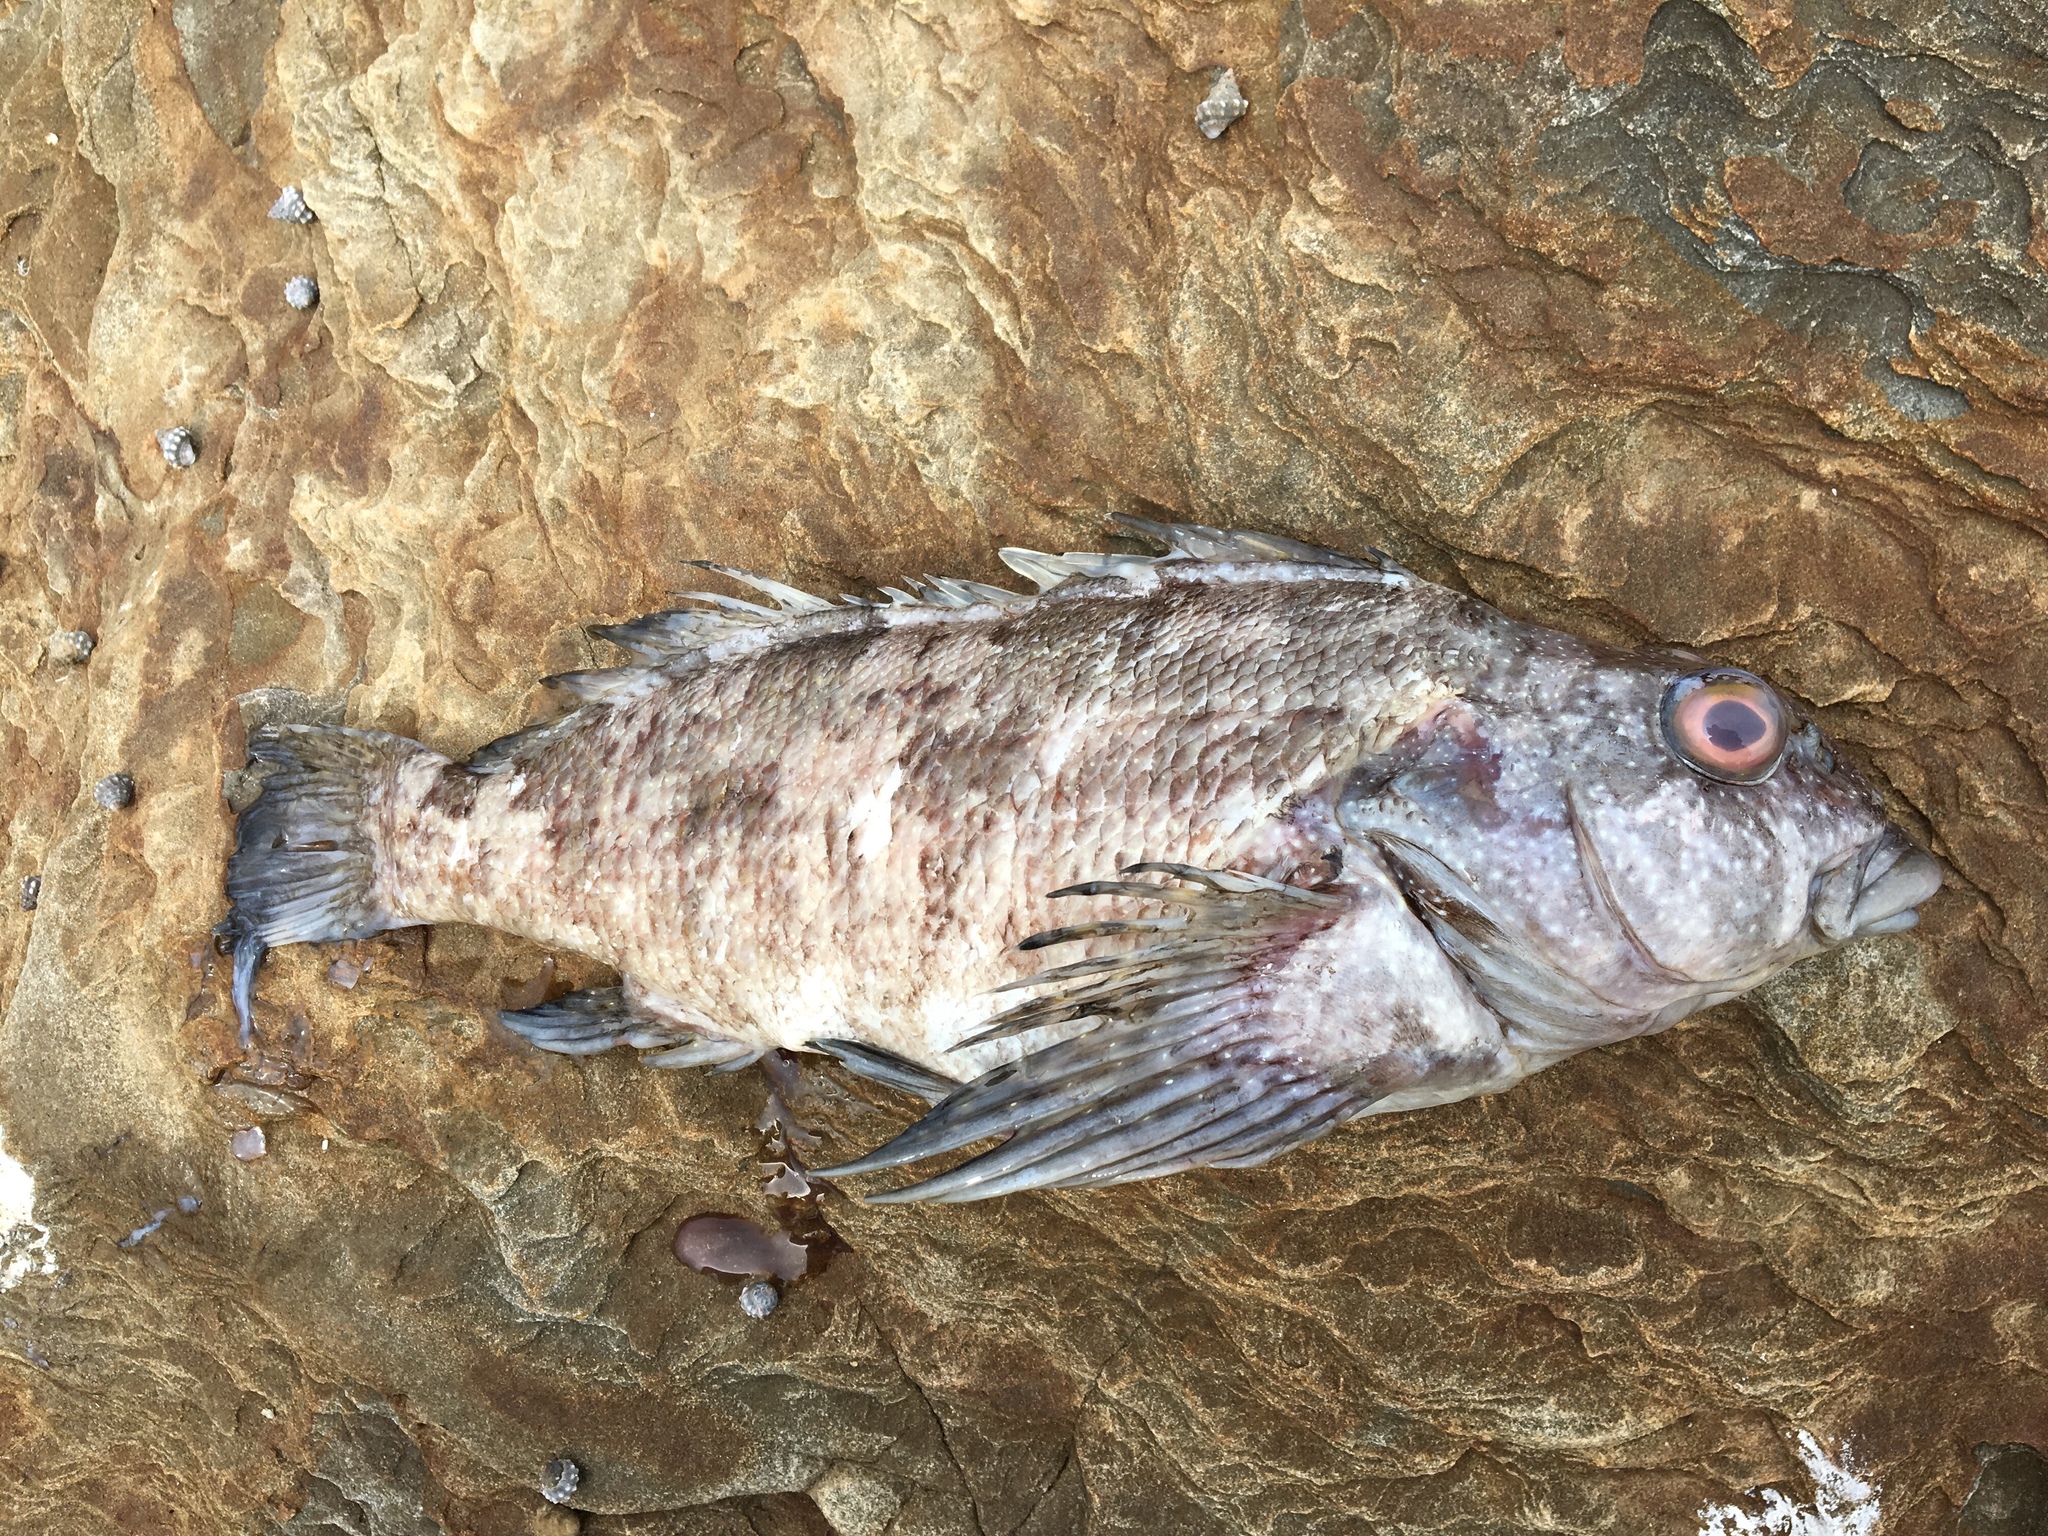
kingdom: Animalia
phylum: Chordata
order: Perciformes
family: Chironemidae
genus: Chironemus
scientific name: Chironemus marmoratus
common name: Kelpfish
